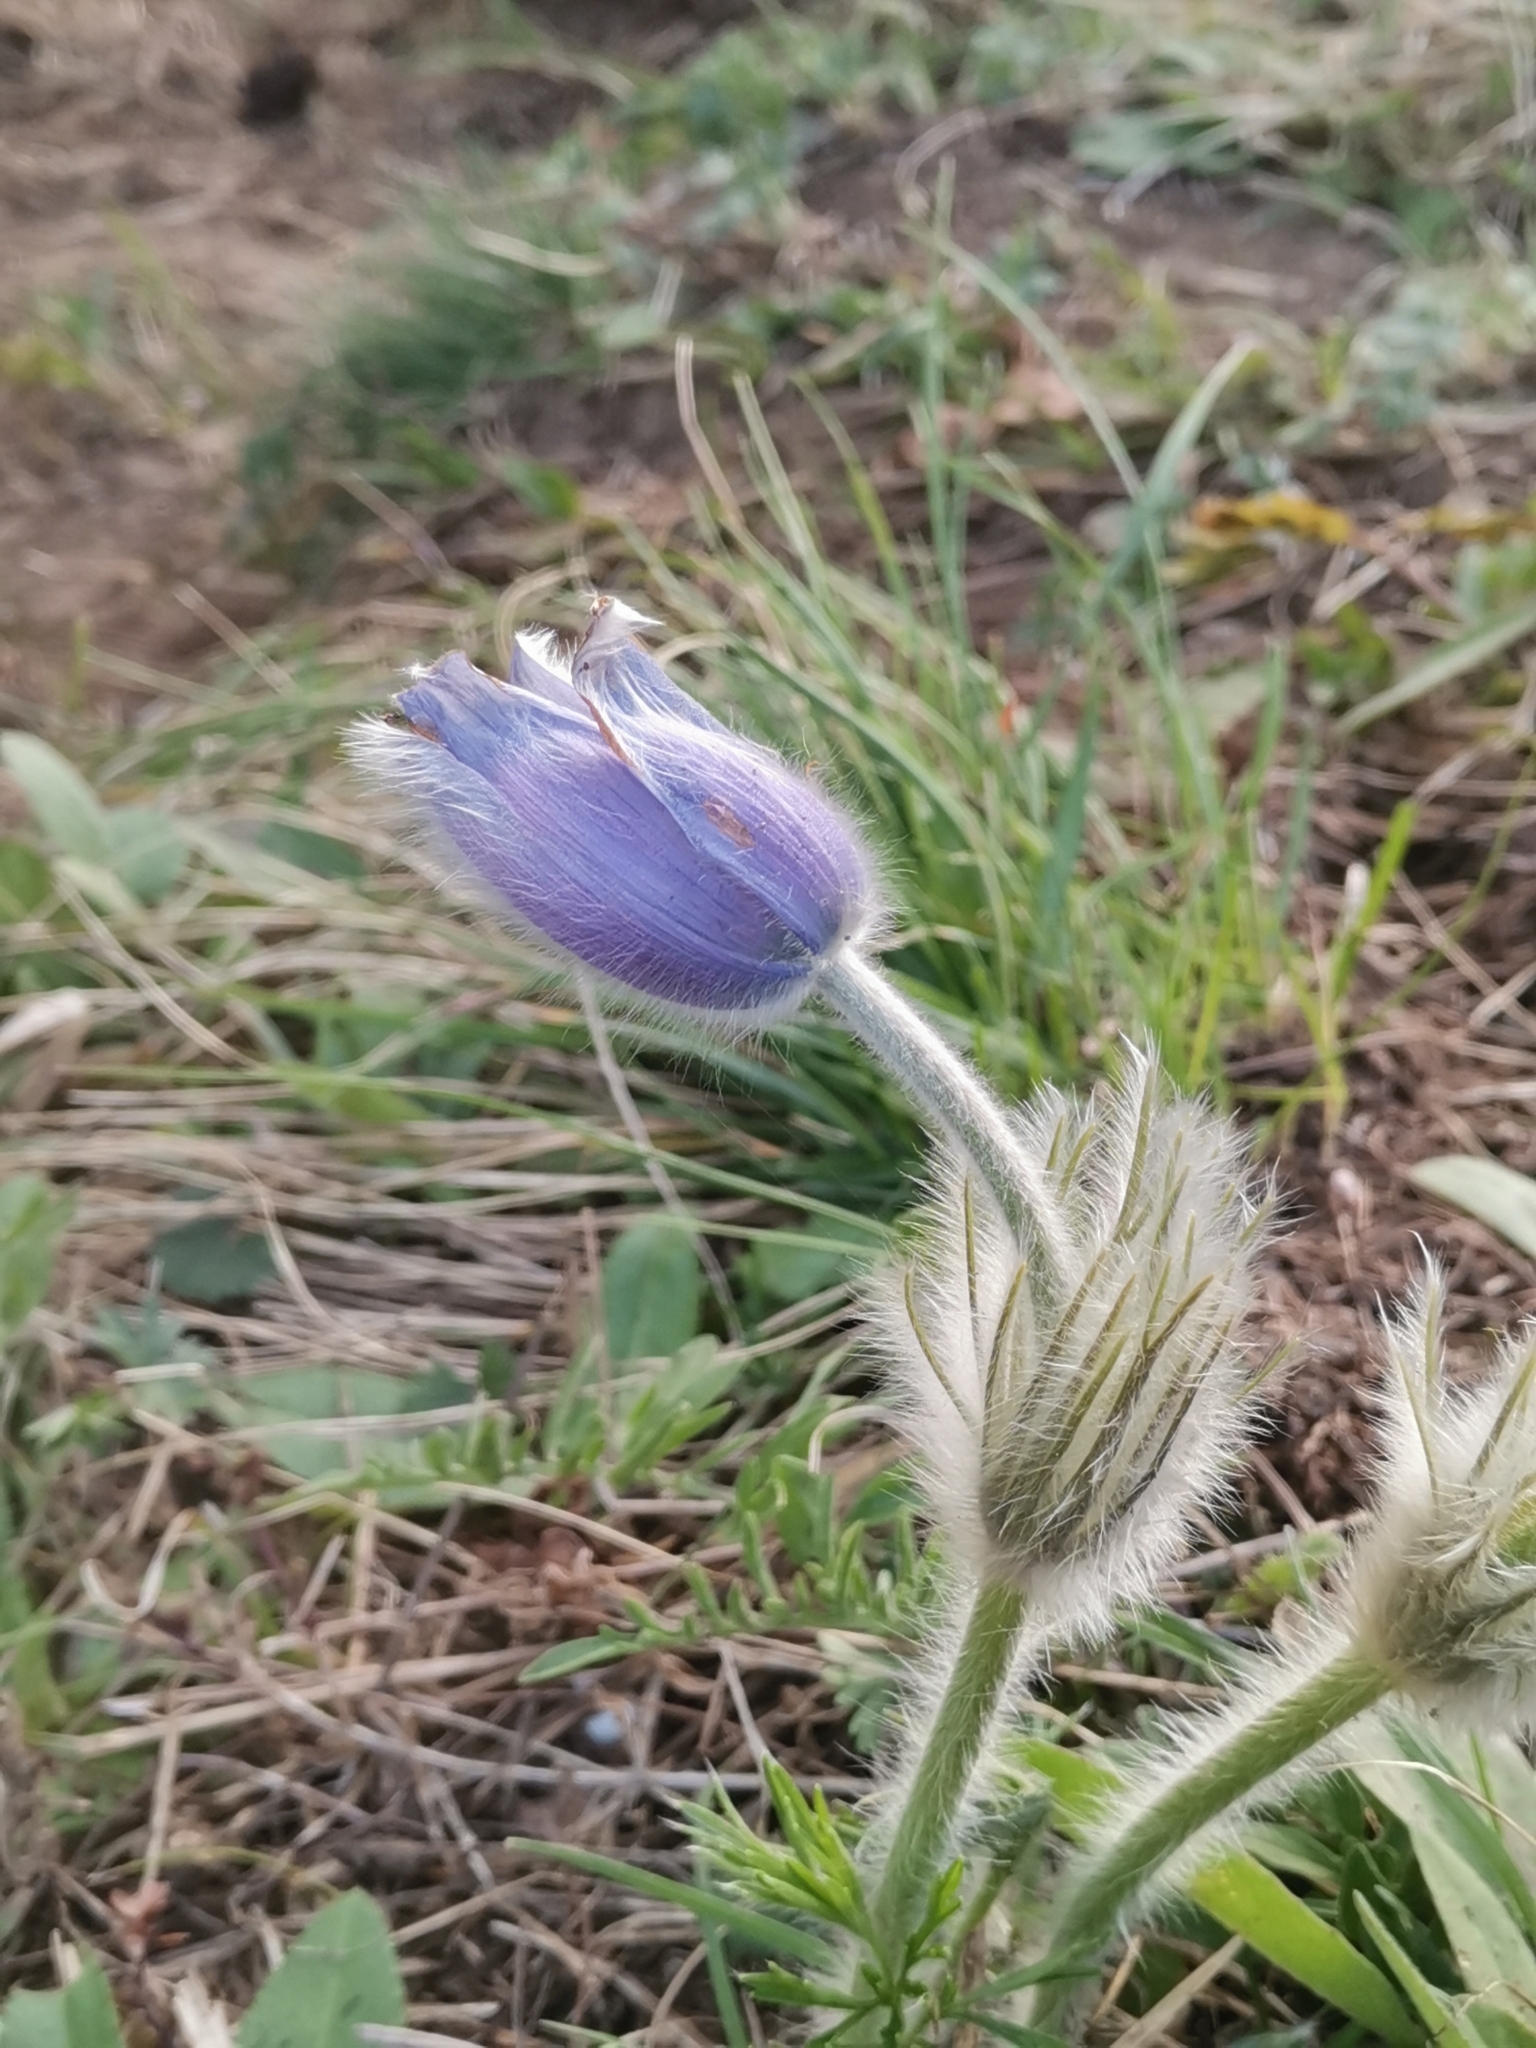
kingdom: Plantae
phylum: Tracheophyta
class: Magnoliopsida
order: Ranunculales
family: Ranunculaceae
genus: Pulsatilla
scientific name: Pulsatilla grandis
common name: Greater pasque flower
